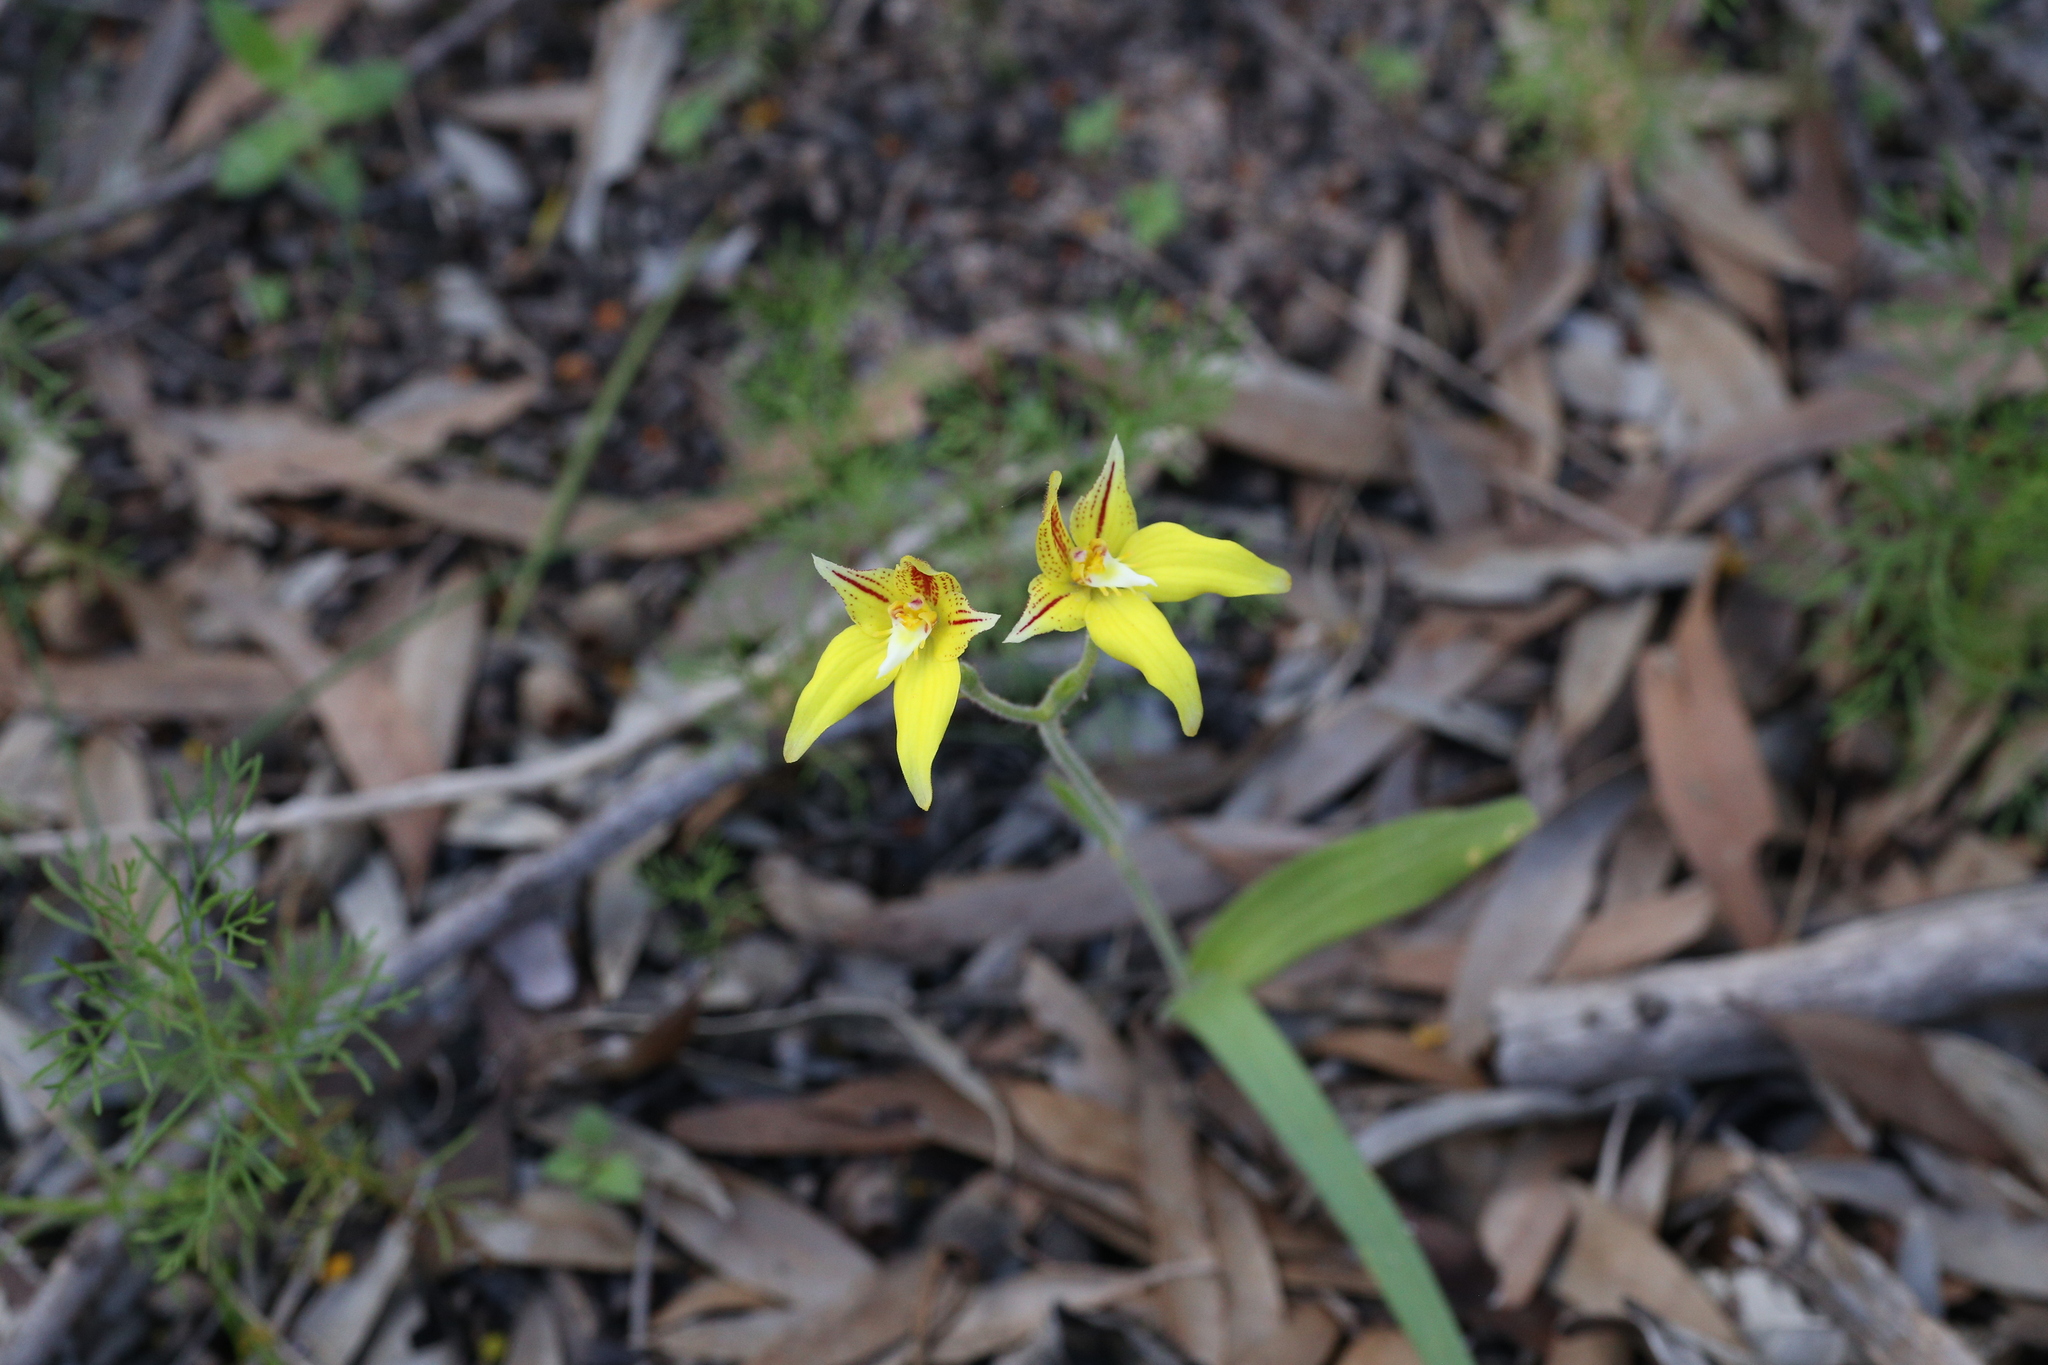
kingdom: Plantae
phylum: Tracheophyta
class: Liliopsida
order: Asparagales
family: Orchidaceae
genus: Caladenia
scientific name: Caladenia flava
